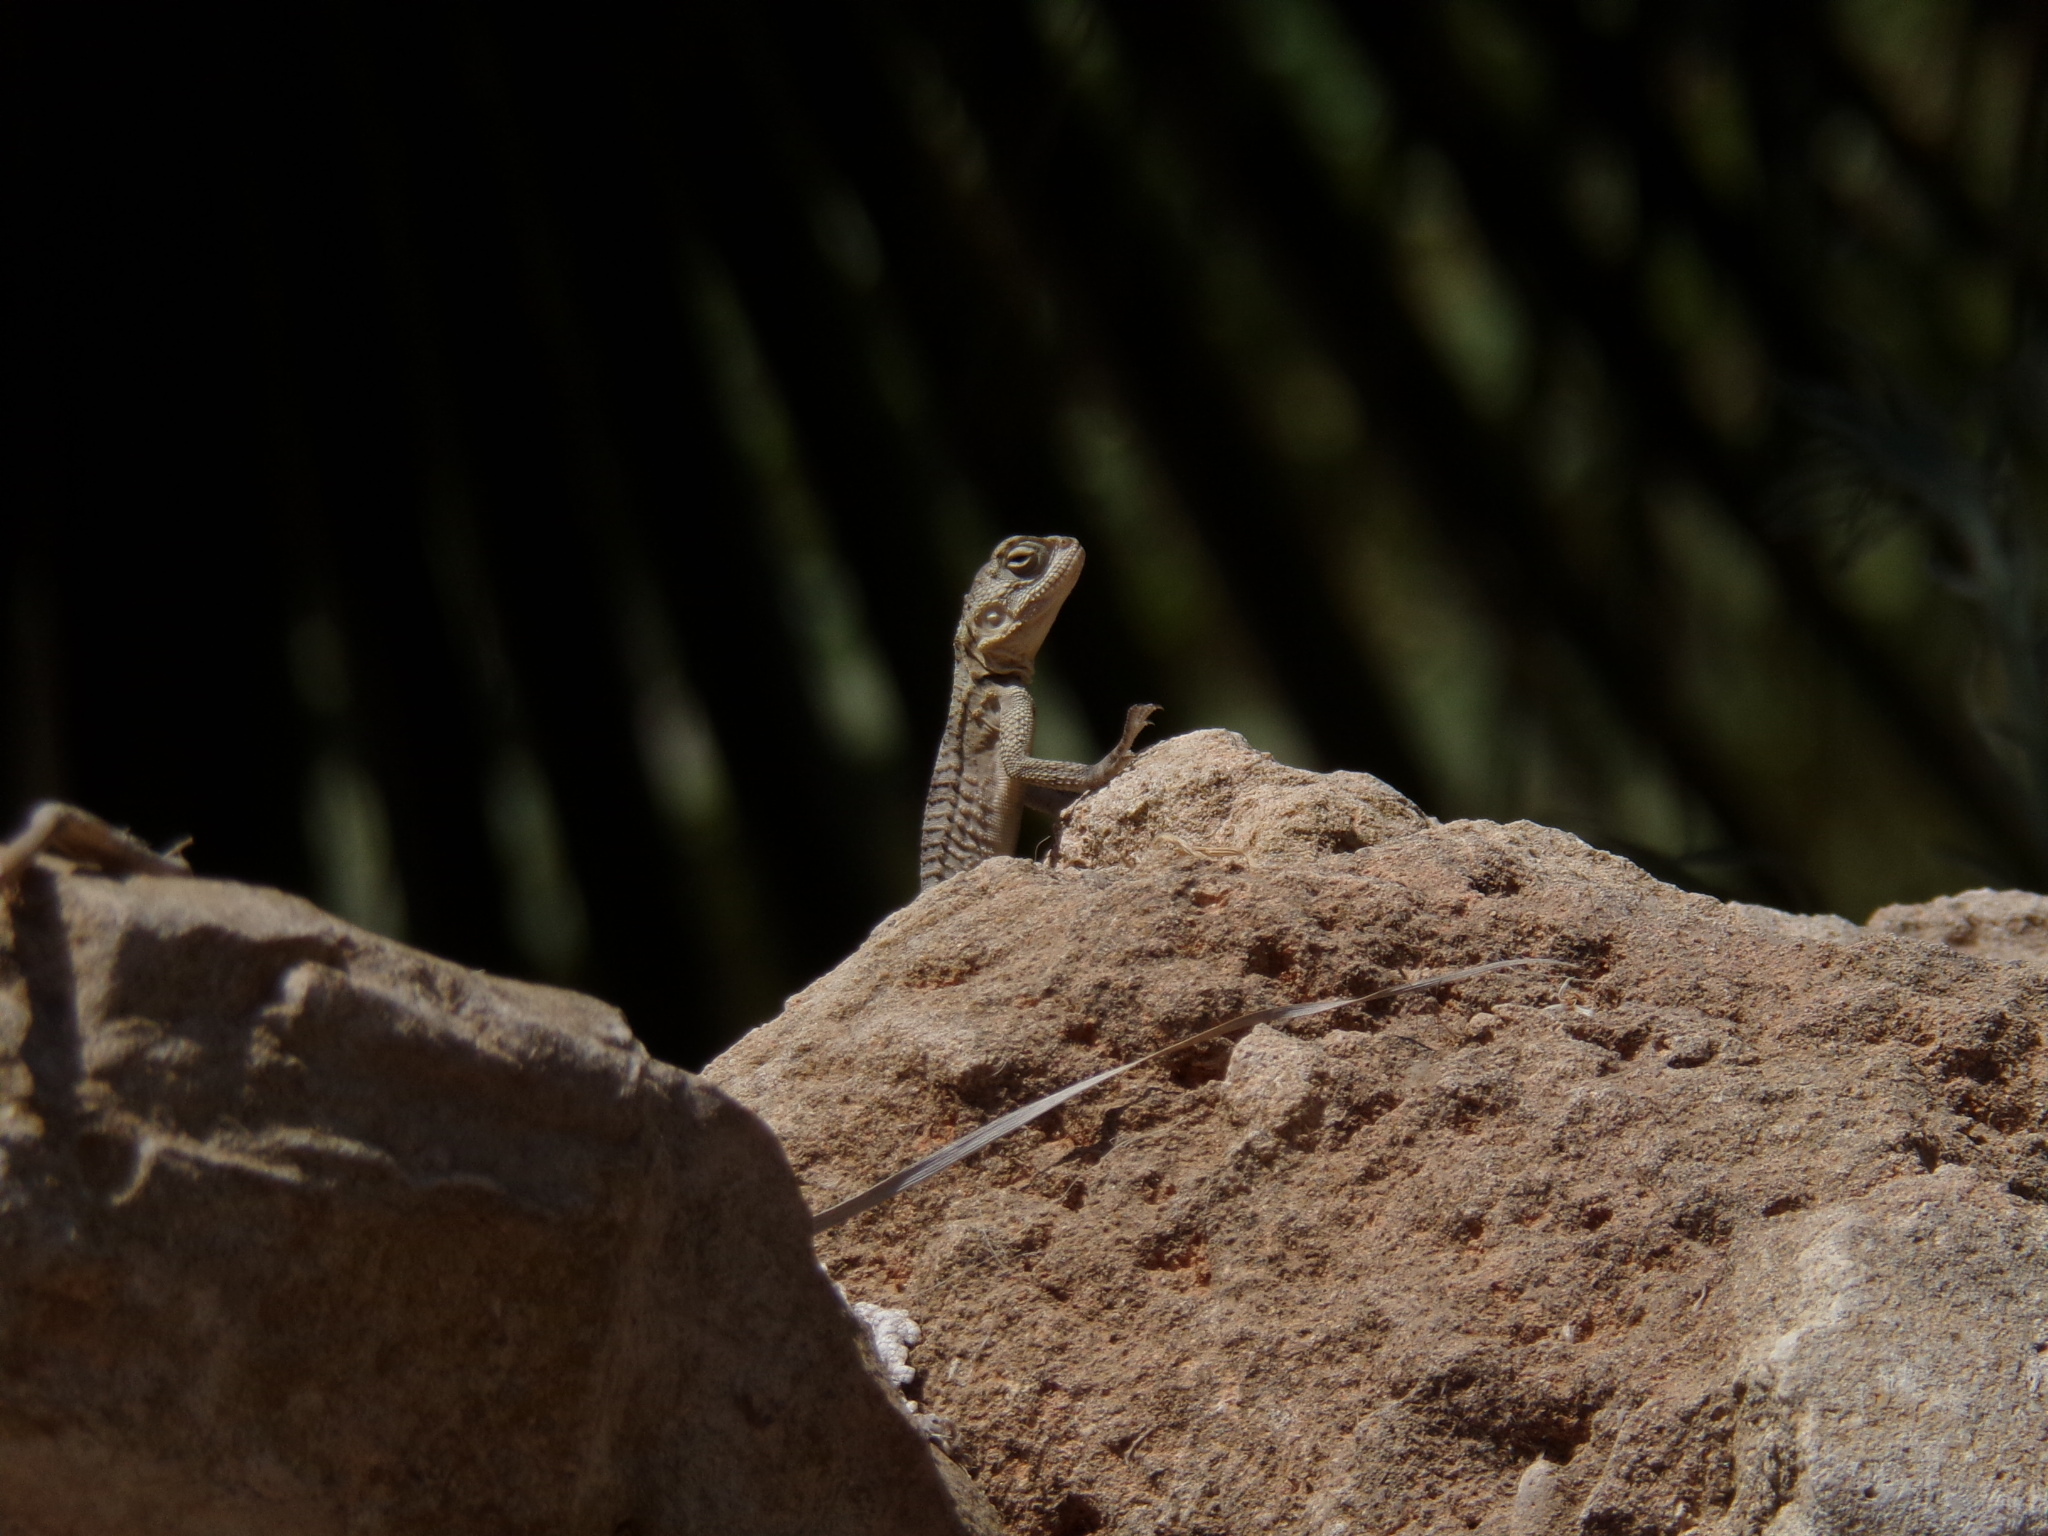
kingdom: Animalia
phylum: Chordata
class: Squamata
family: Agamidae
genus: Laudakia
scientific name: Laudakia
